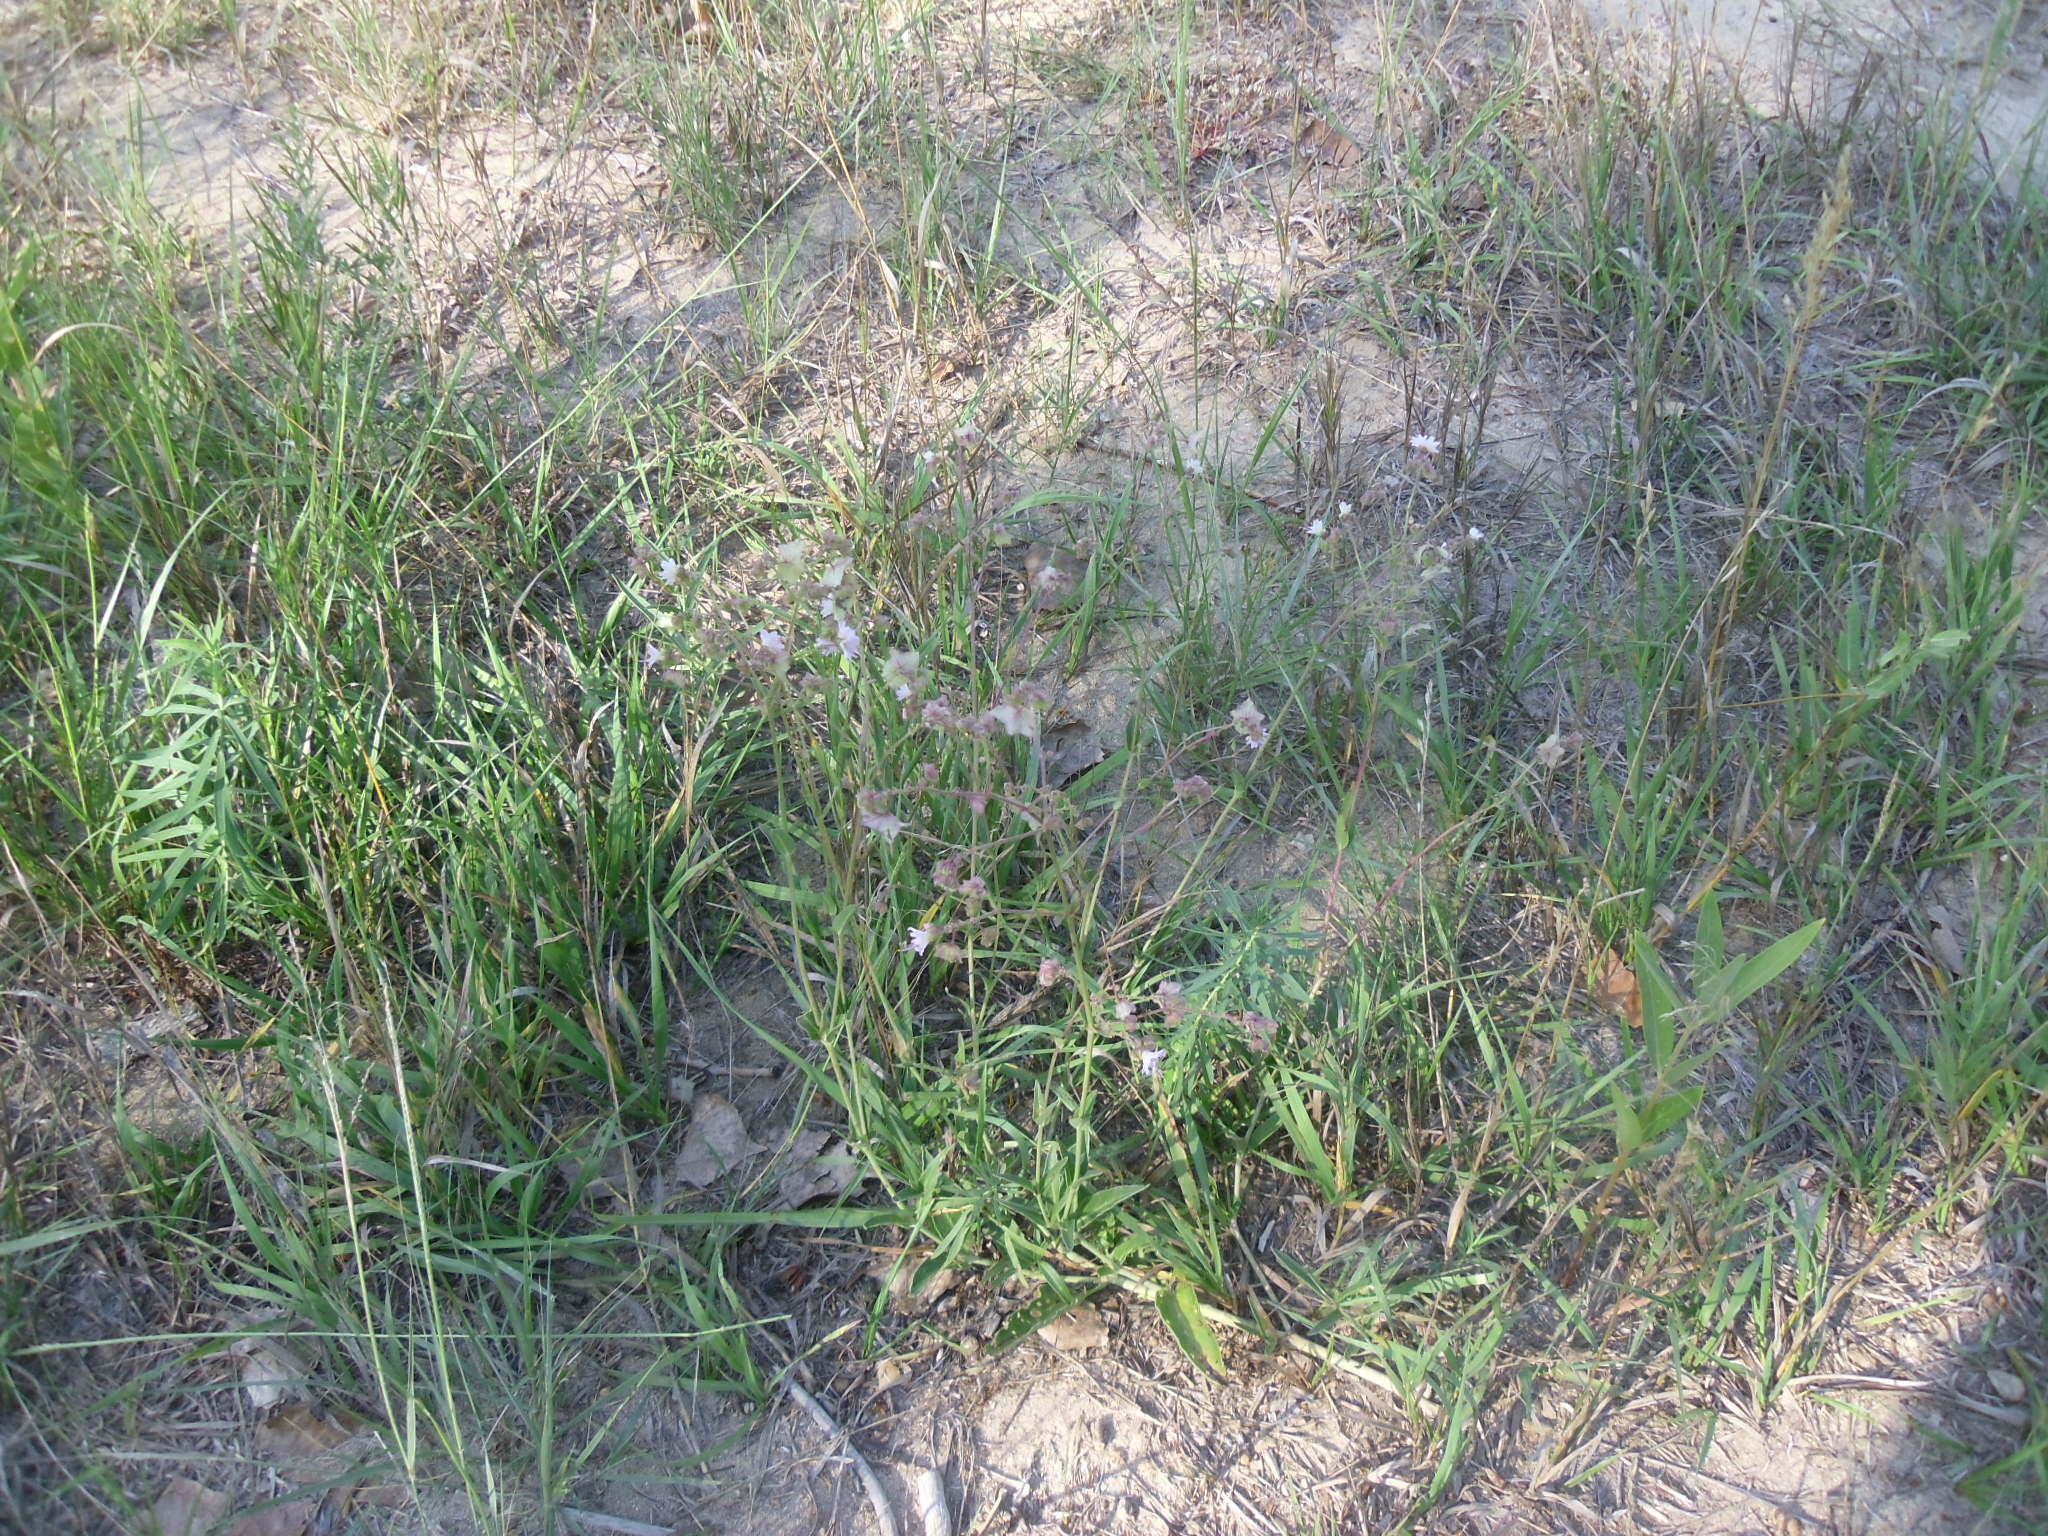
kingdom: Plantae
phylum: Tracheophyta
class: Magnoliopsida
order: Caryophyllales
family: Nyctaginaceae
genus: Mirabilis
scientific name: Mirabilis linearis
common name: Linear-leaved four-o'clock
